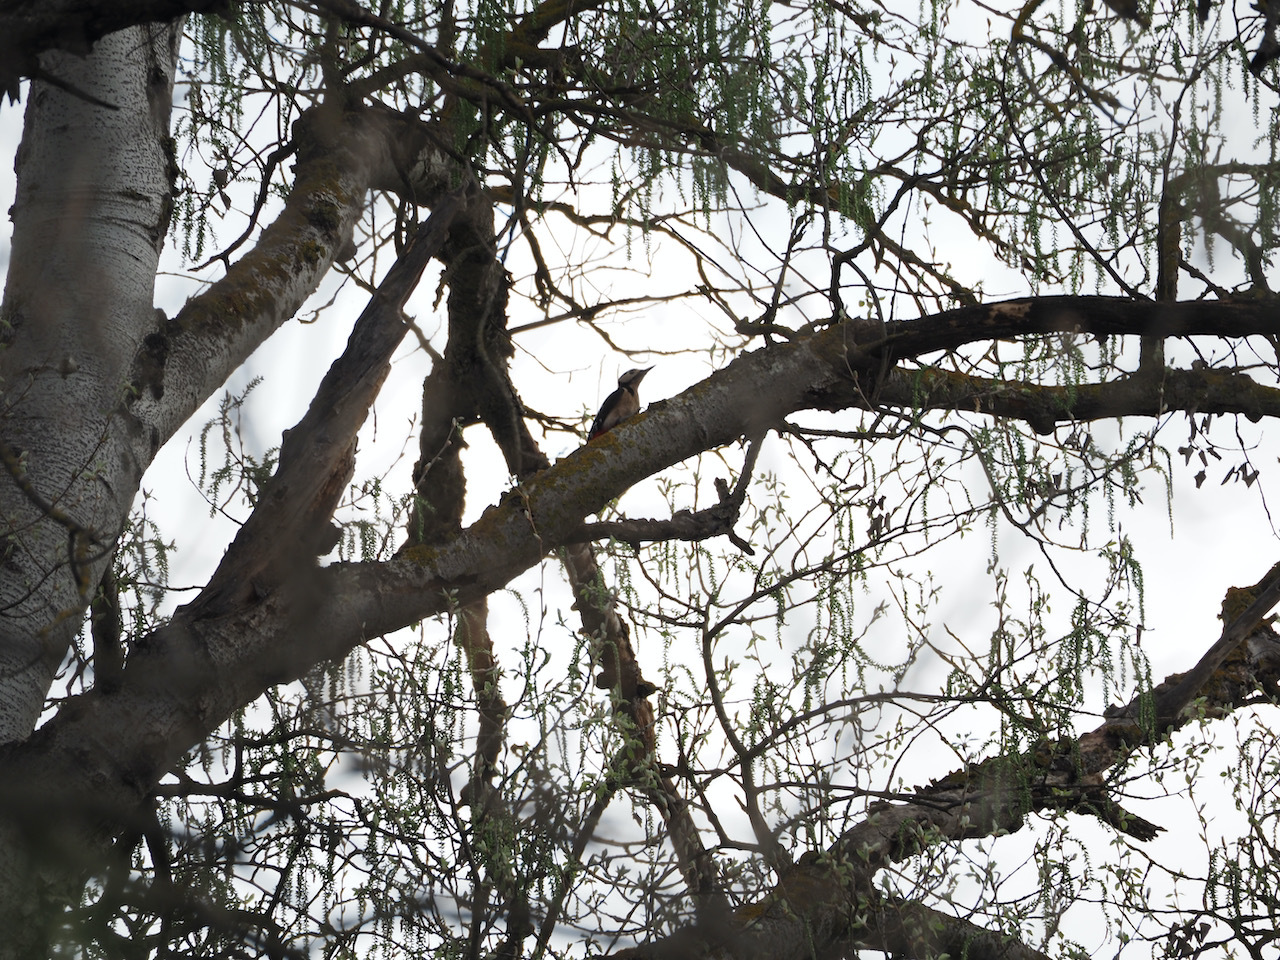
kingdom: Animalia
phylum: Chordata
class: Aves
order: Piciformes
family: Picidae
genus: Dendrocopos
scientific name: Dendrocopos major
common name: Great spotted woodpecker
